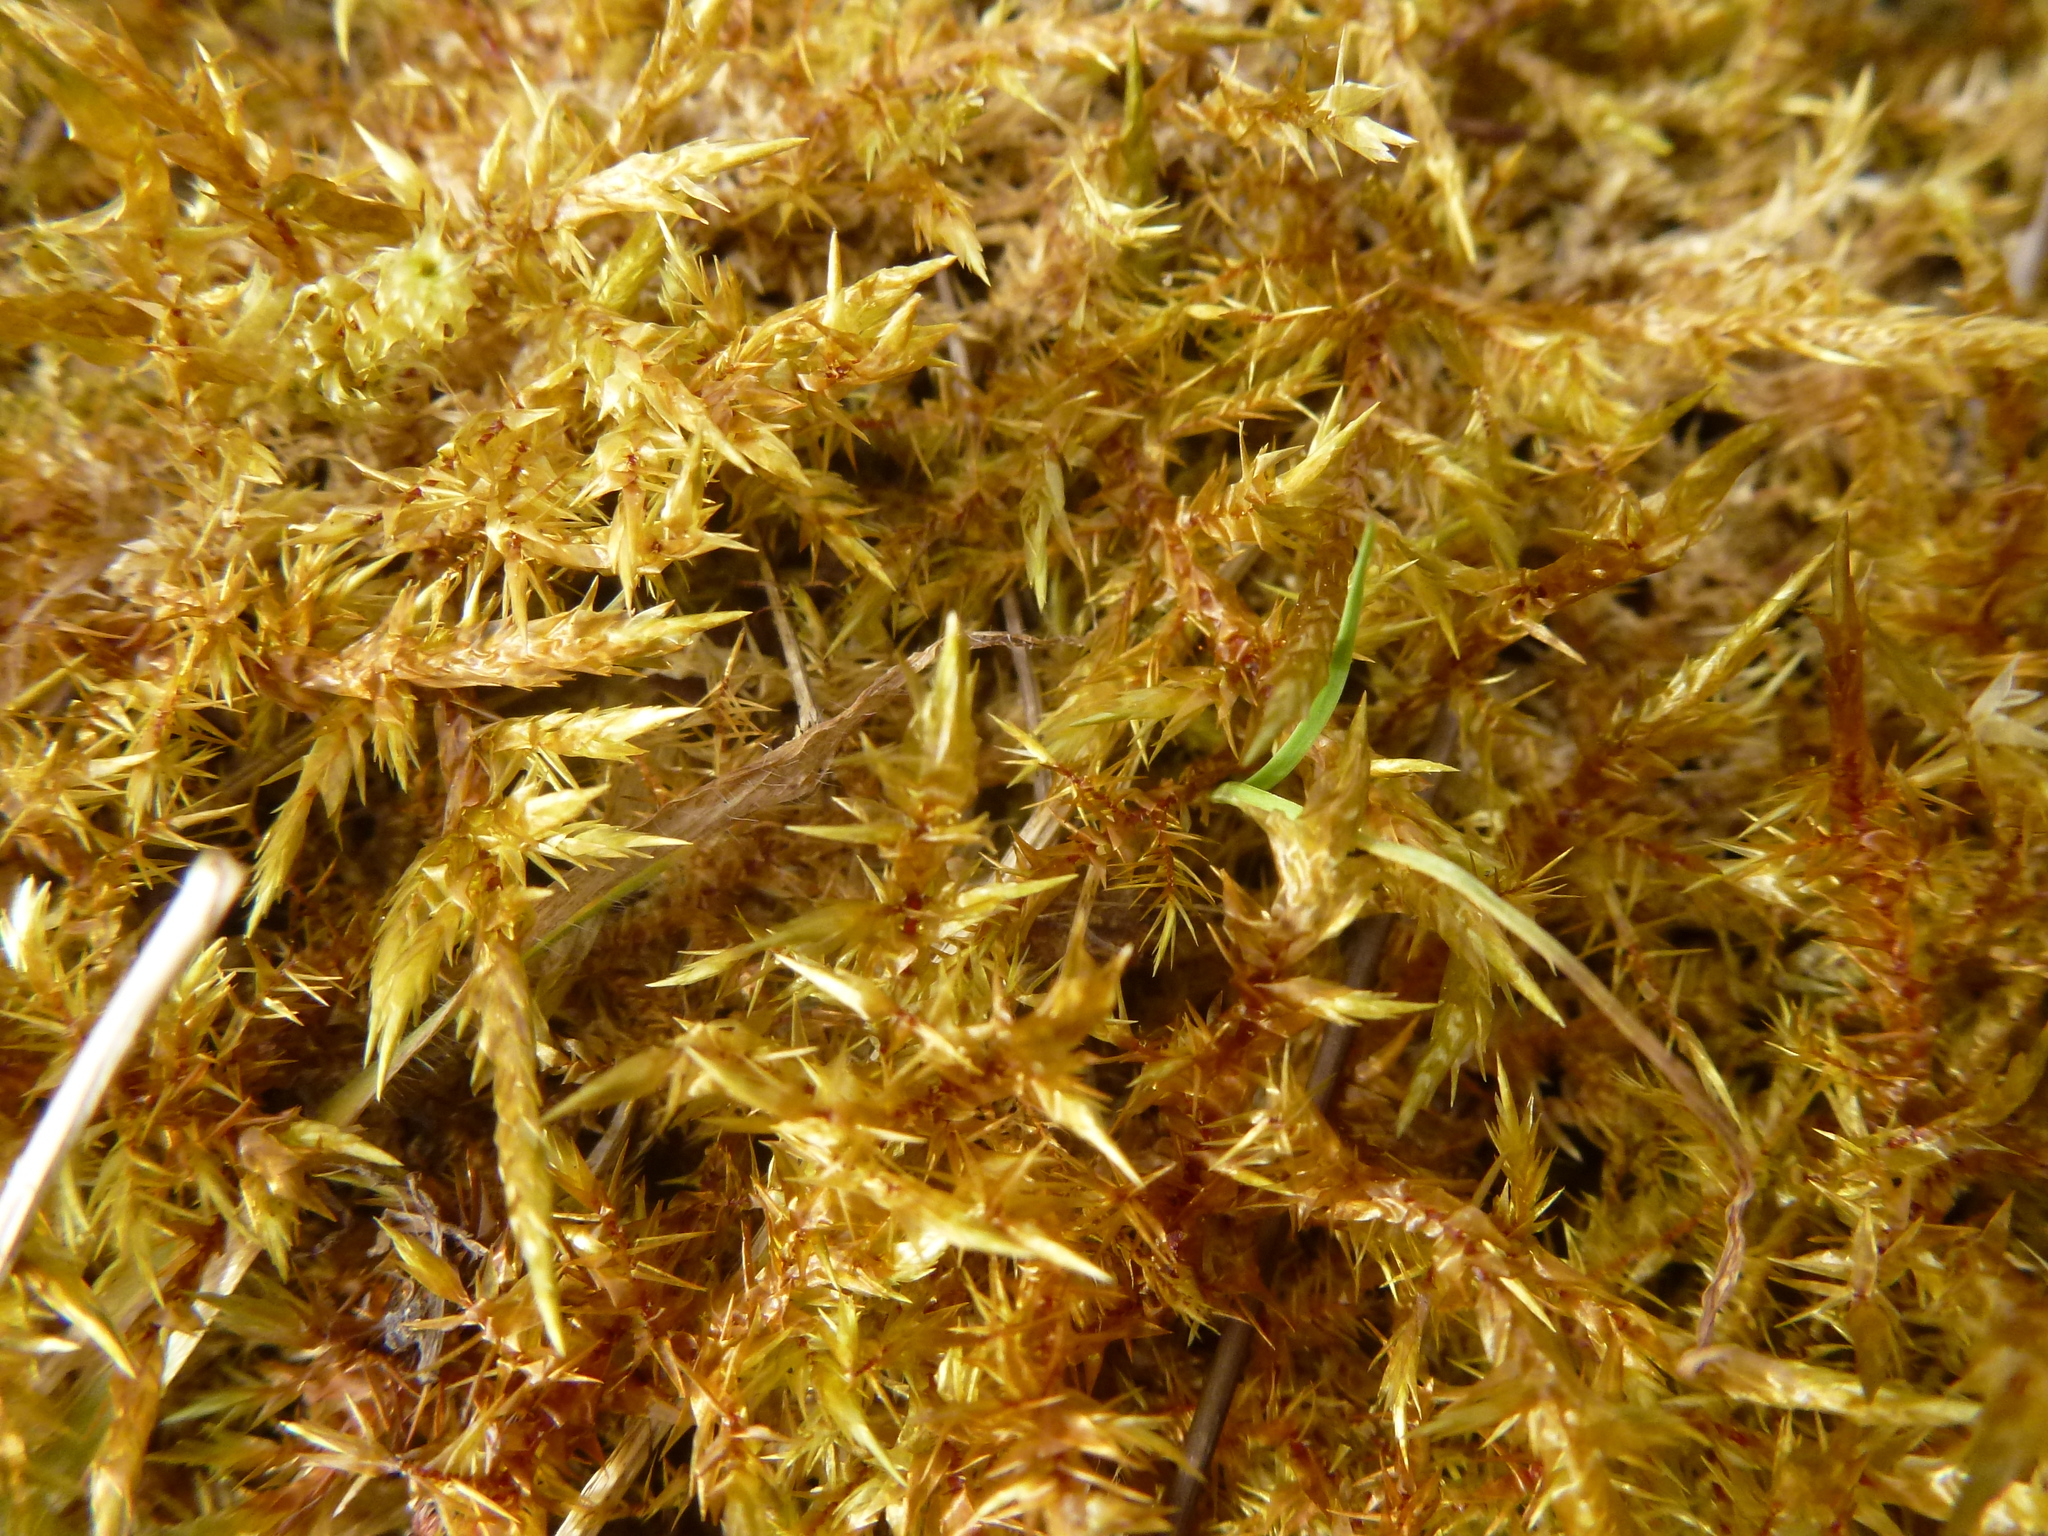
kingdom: Plantae
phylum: Bryophyta
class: Bryopsida
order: Hypnales
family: Pylaisiaceae
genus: Calliergonella
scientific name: Calliergonella cuspidata
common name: Common large wetland moss
